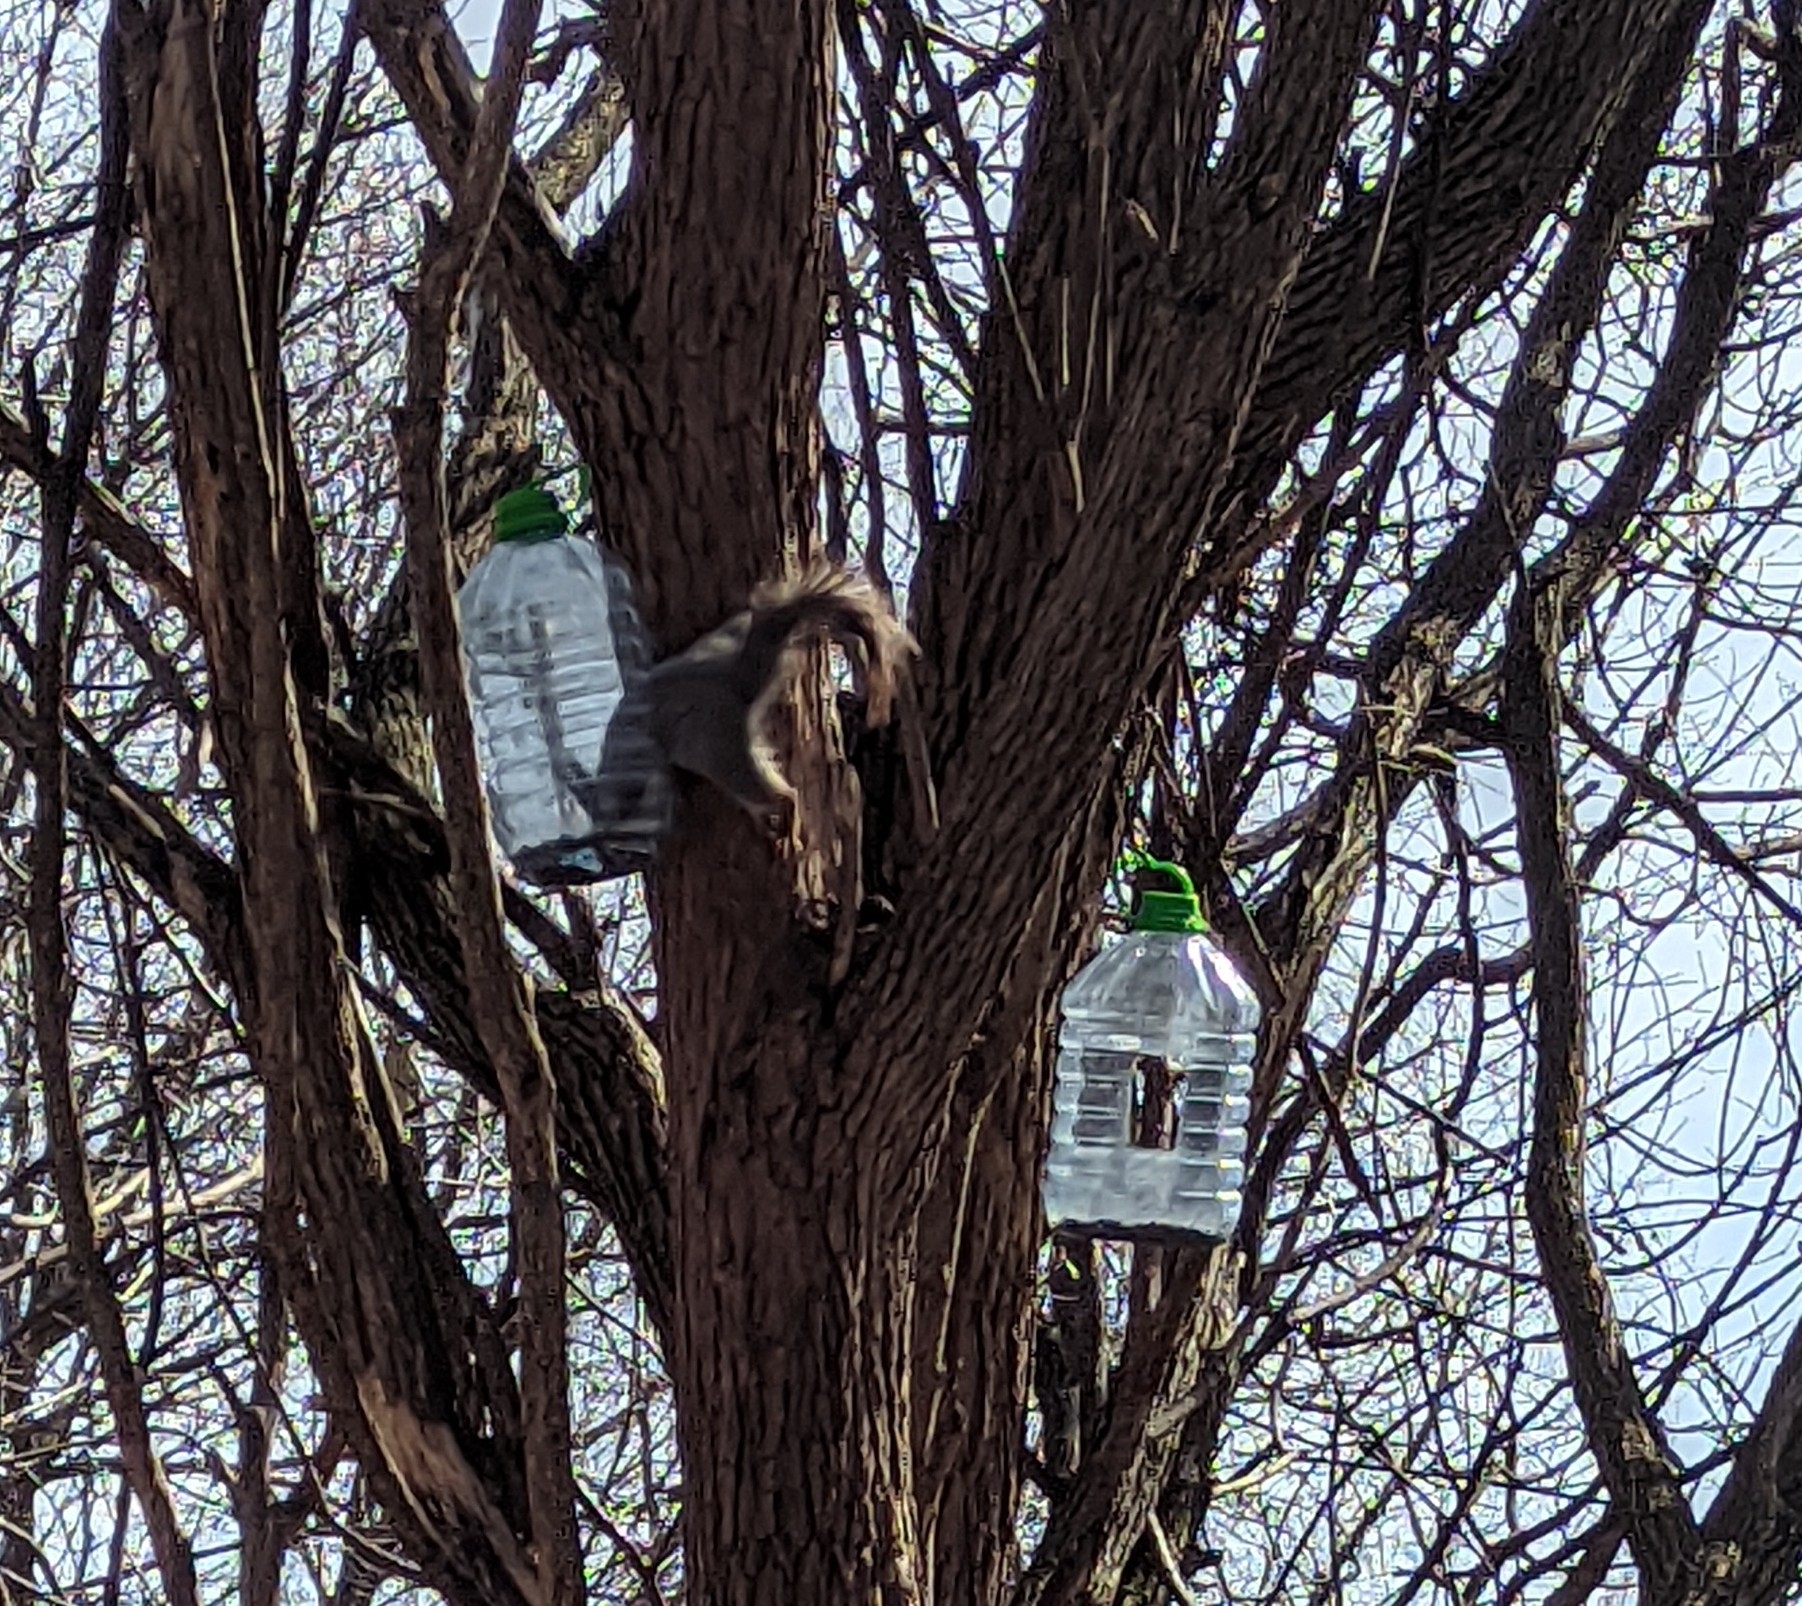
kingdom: Animalia
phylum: Chordata
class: Mammalia
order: Rodentia
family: Sciuridae
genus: Sciurus
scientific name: Sciurus vulgaris
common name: Eurasian red squirrel
